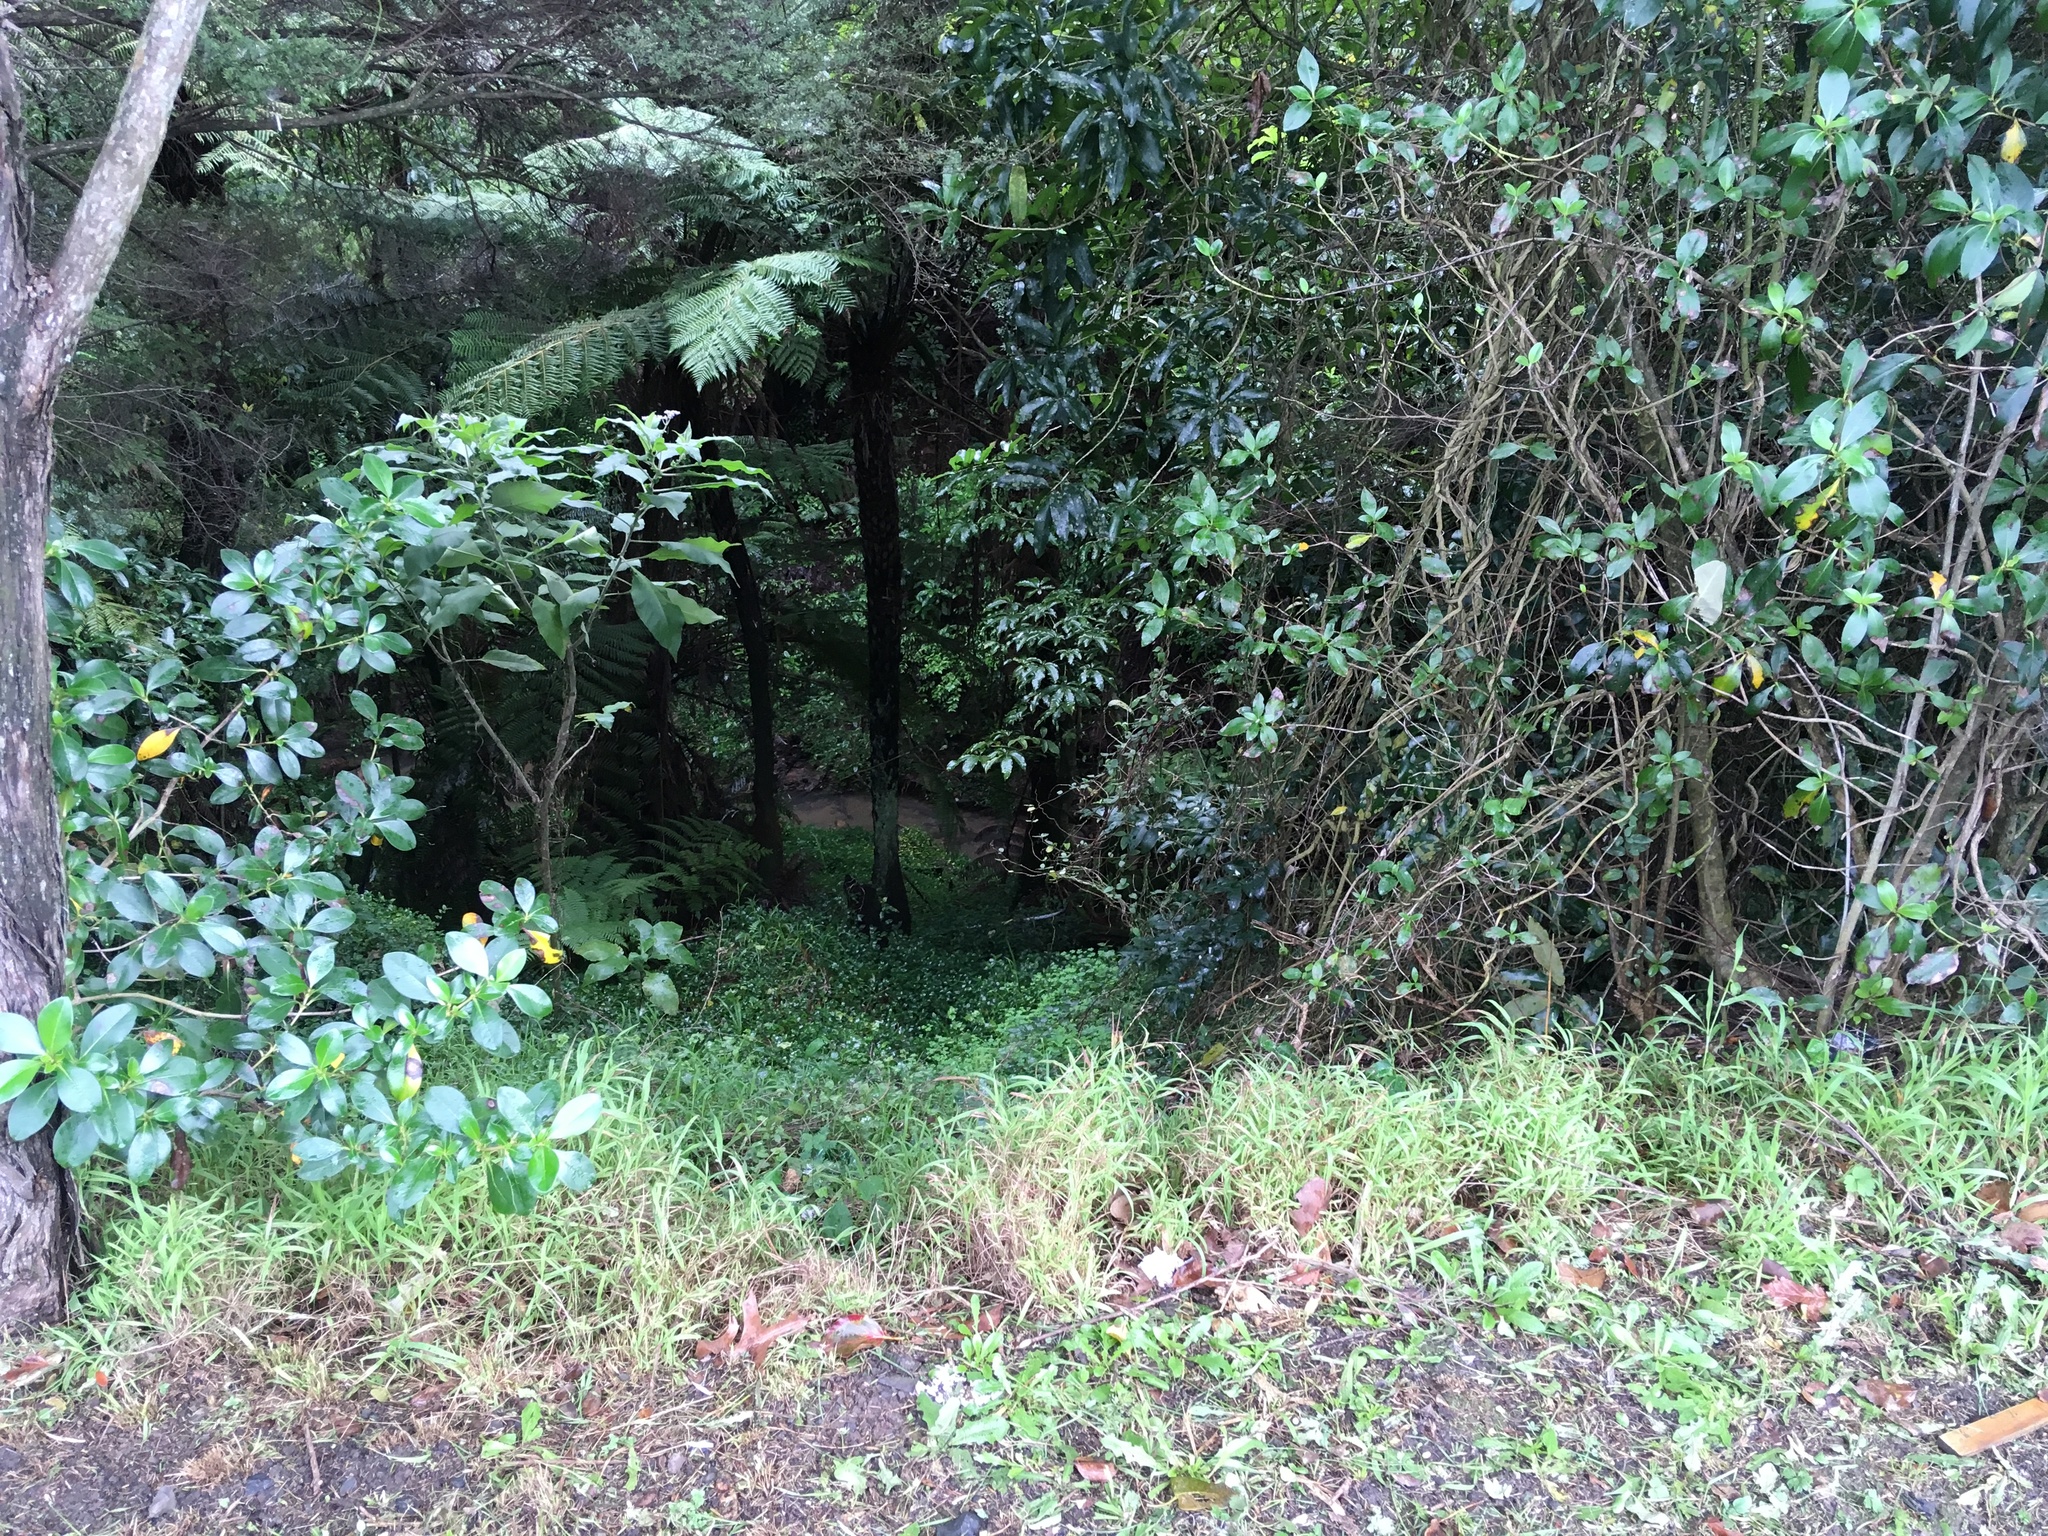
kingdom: Plantae
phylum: Tracheophyta
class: Magnoliopsida
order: Gentianales
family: Rubiaceae
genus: Coprosma
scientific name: Coprosma robusta
